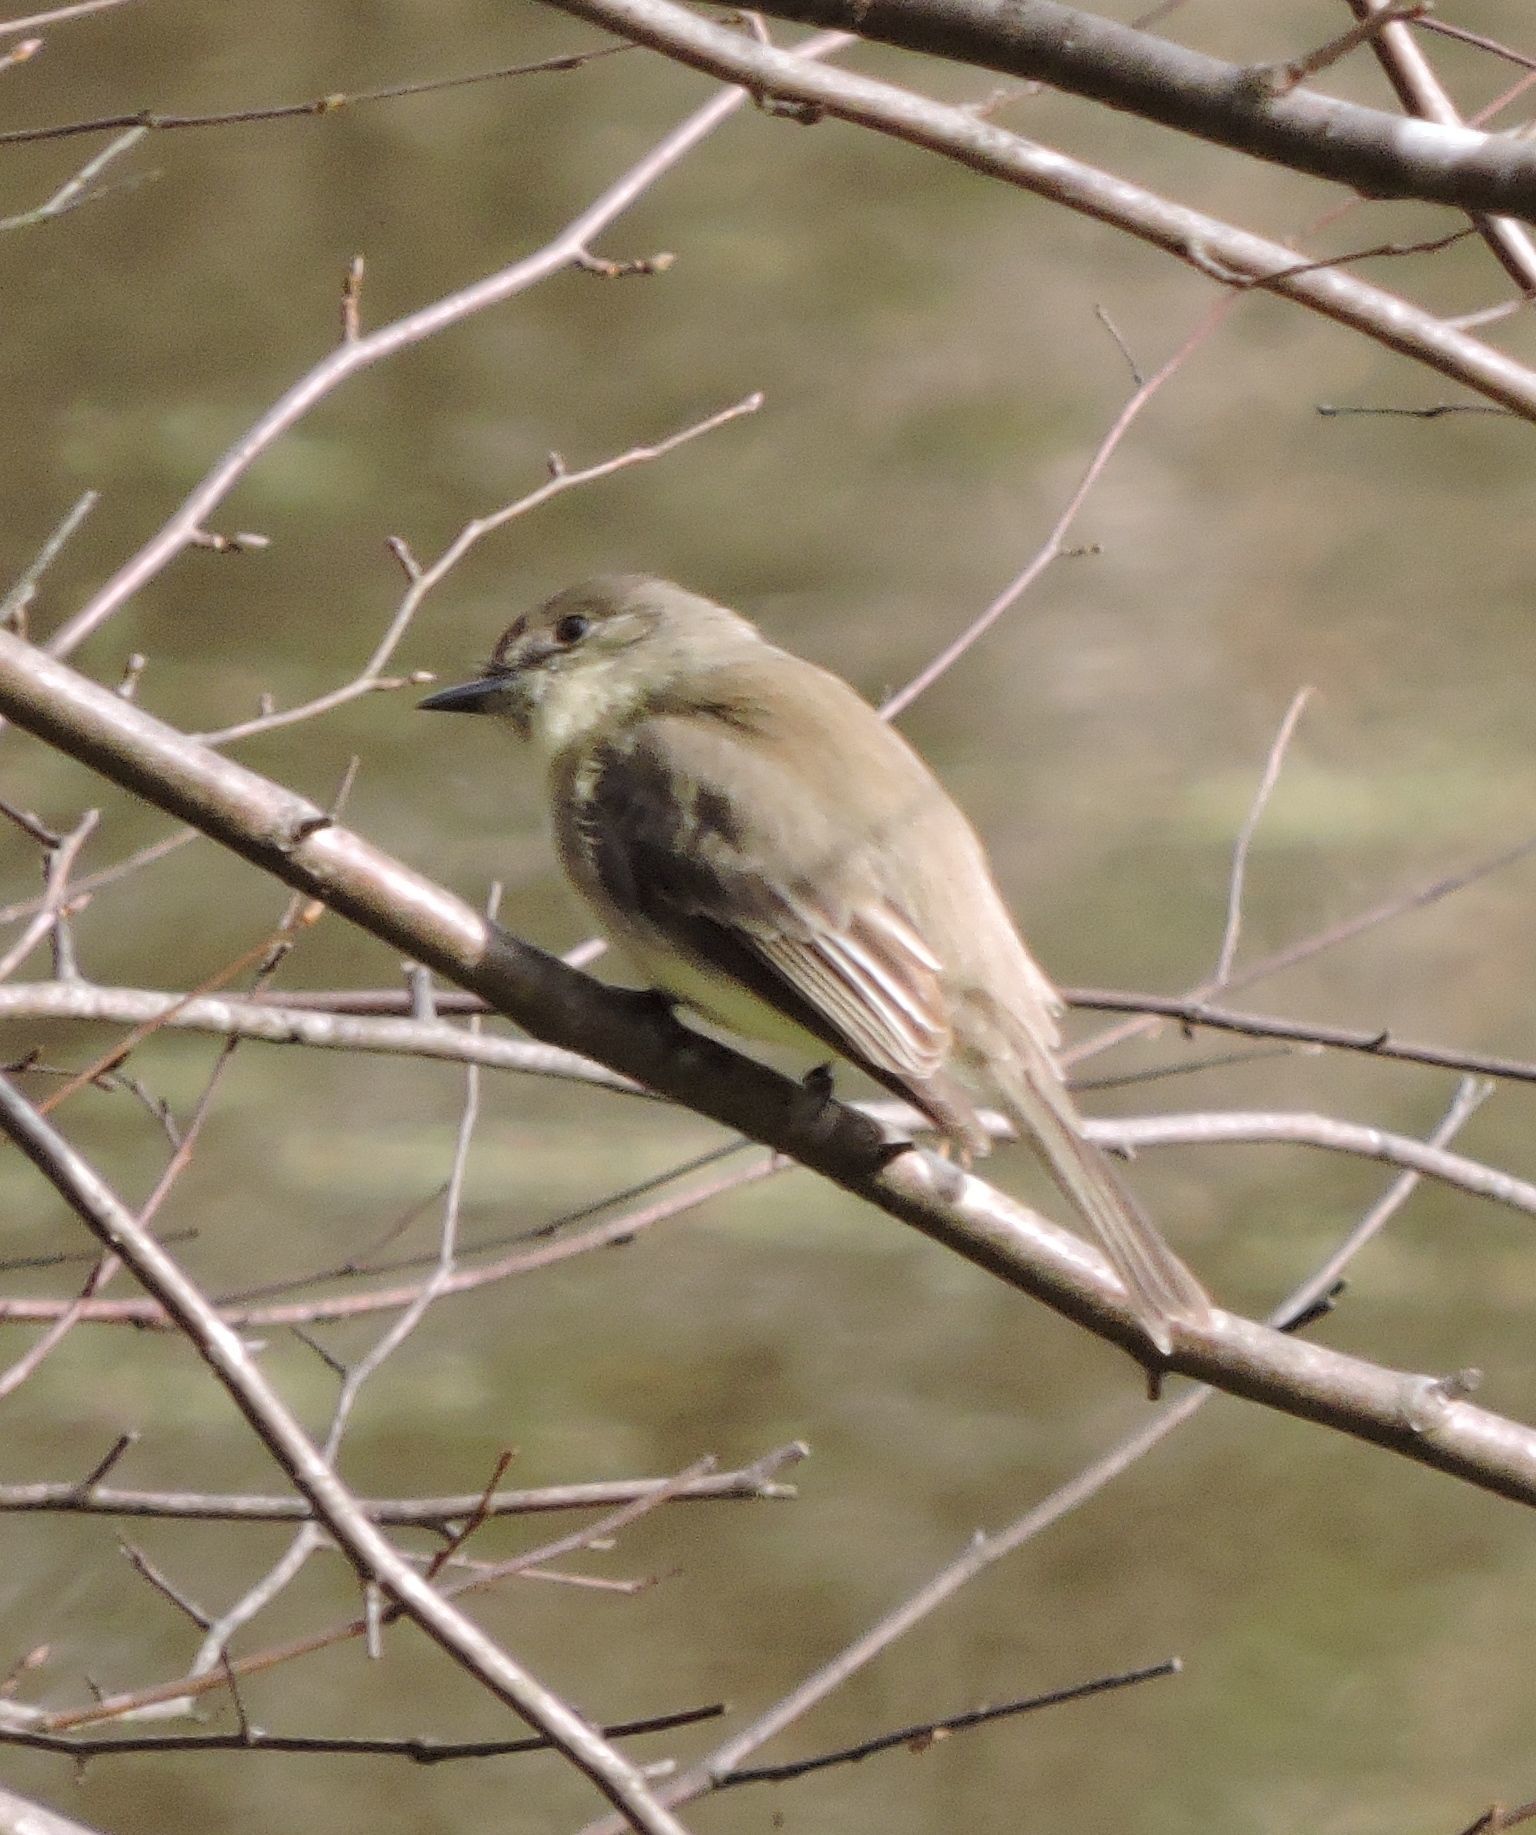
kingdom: Animalia
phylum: Chordata
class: Aves
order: Passeriformes
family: Tyrannidae
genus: Sayornis
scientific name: Sayornis phoebe
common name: Eastern phoebe
